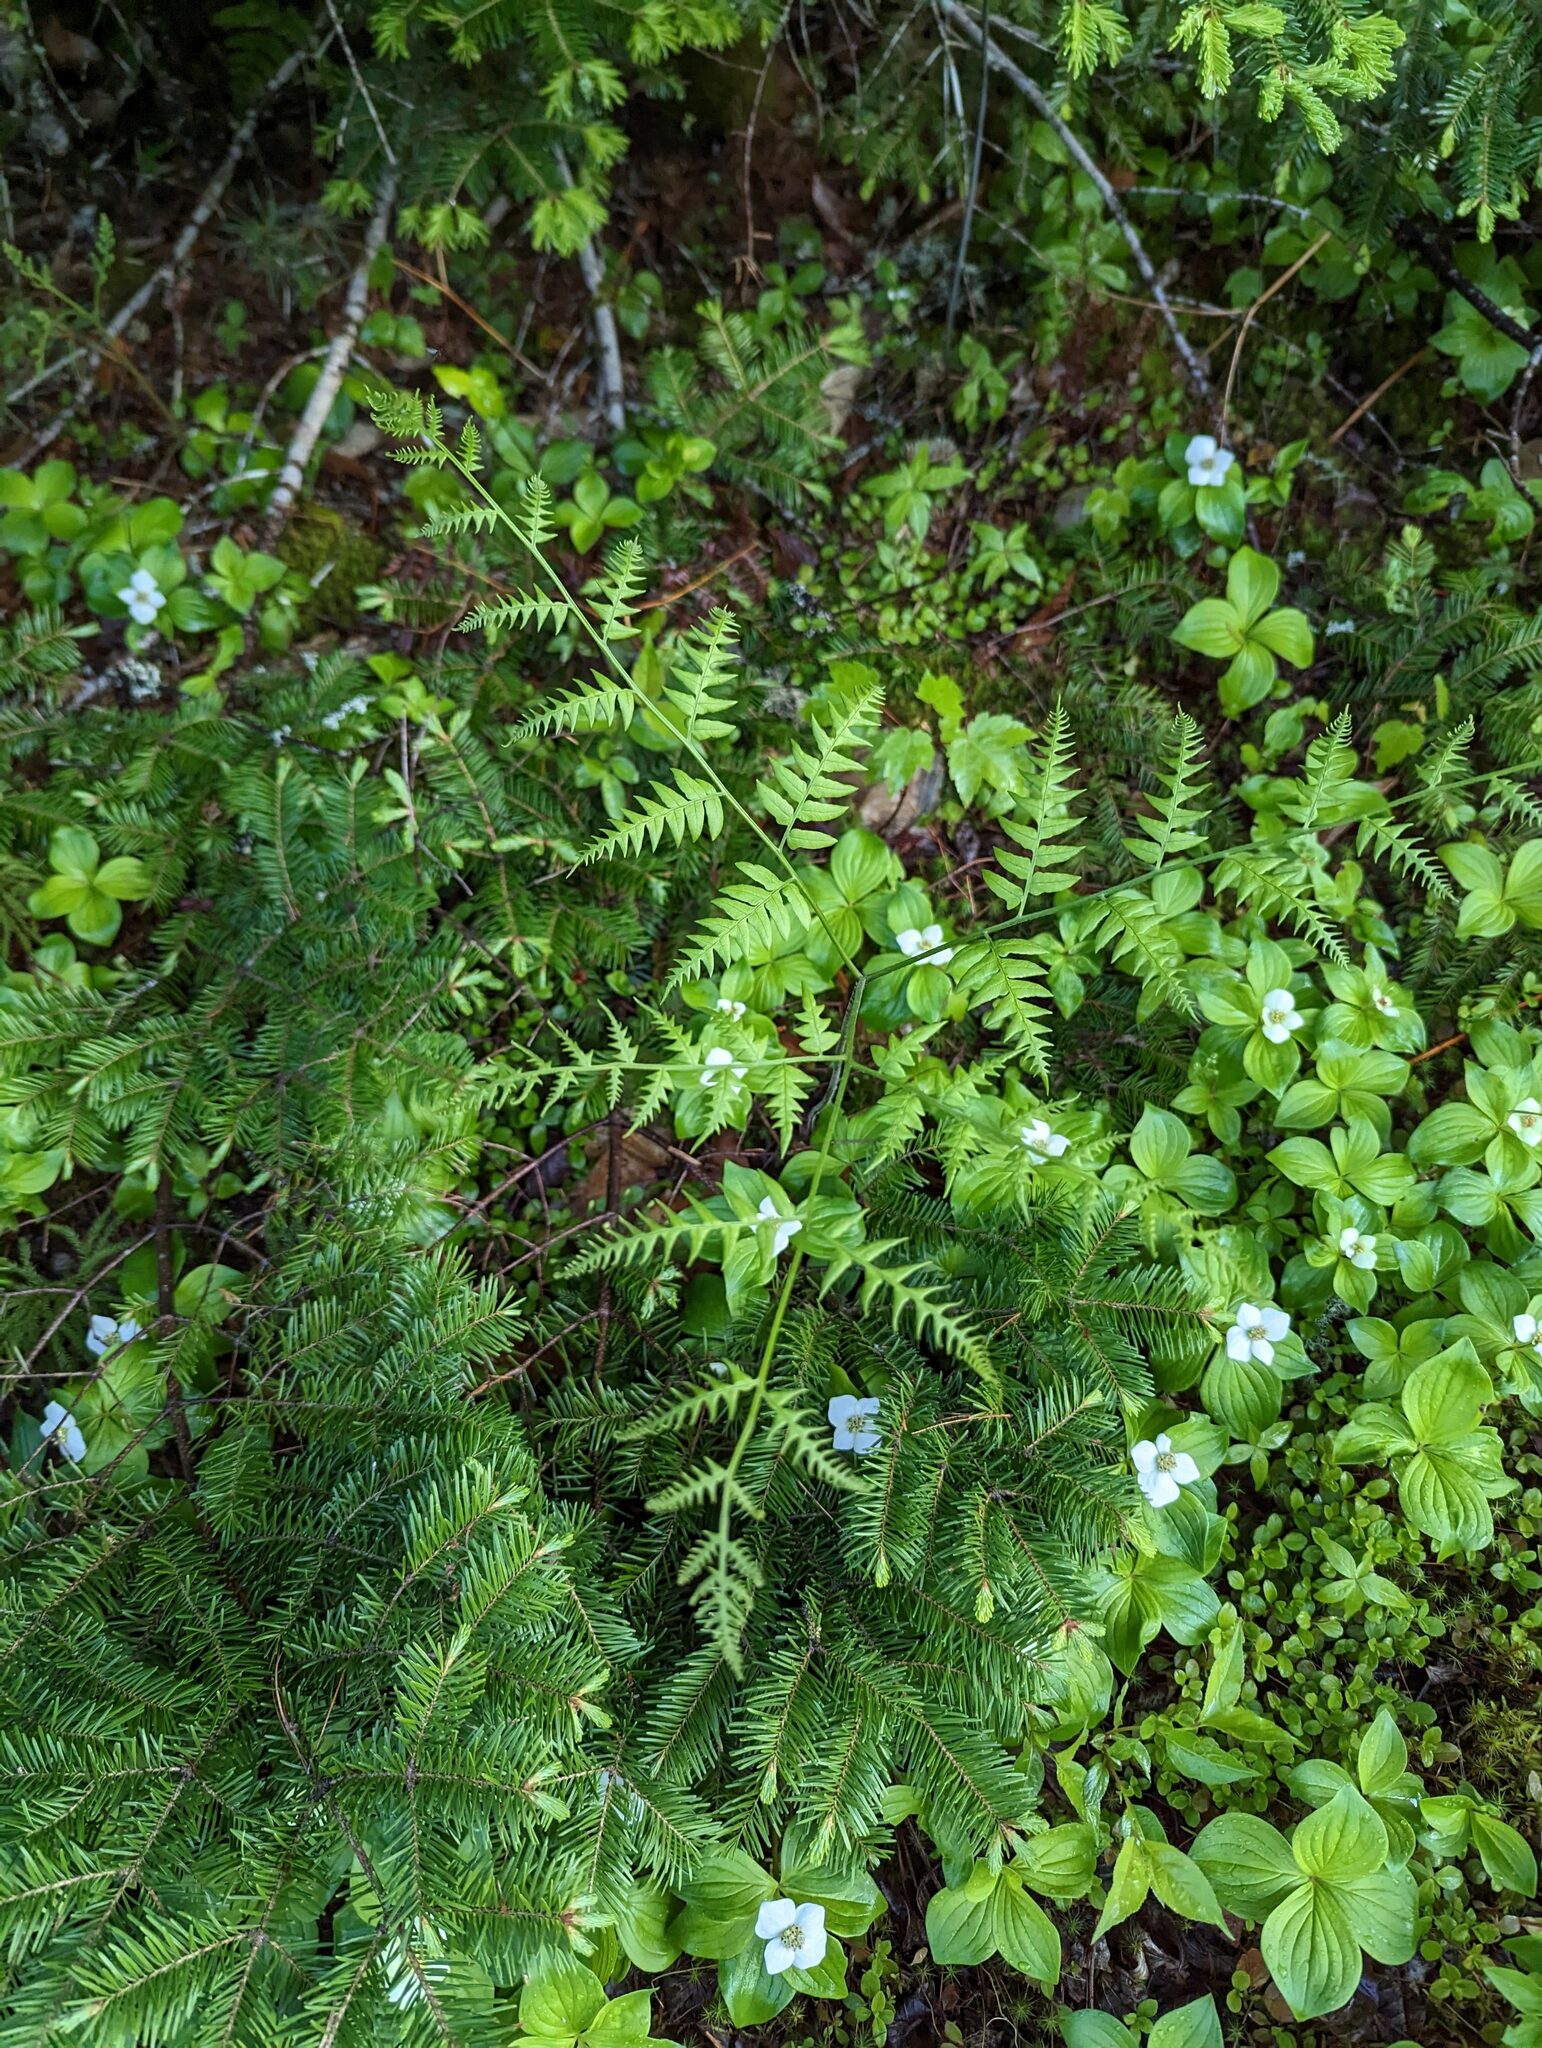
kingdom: Plantae
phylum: Tracheophyta
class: Polypodiopsida
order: Polypodiales
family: Dennstaedtiaceae
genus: Pteridium
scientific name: Pteridium aquilinum
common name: Bracken
